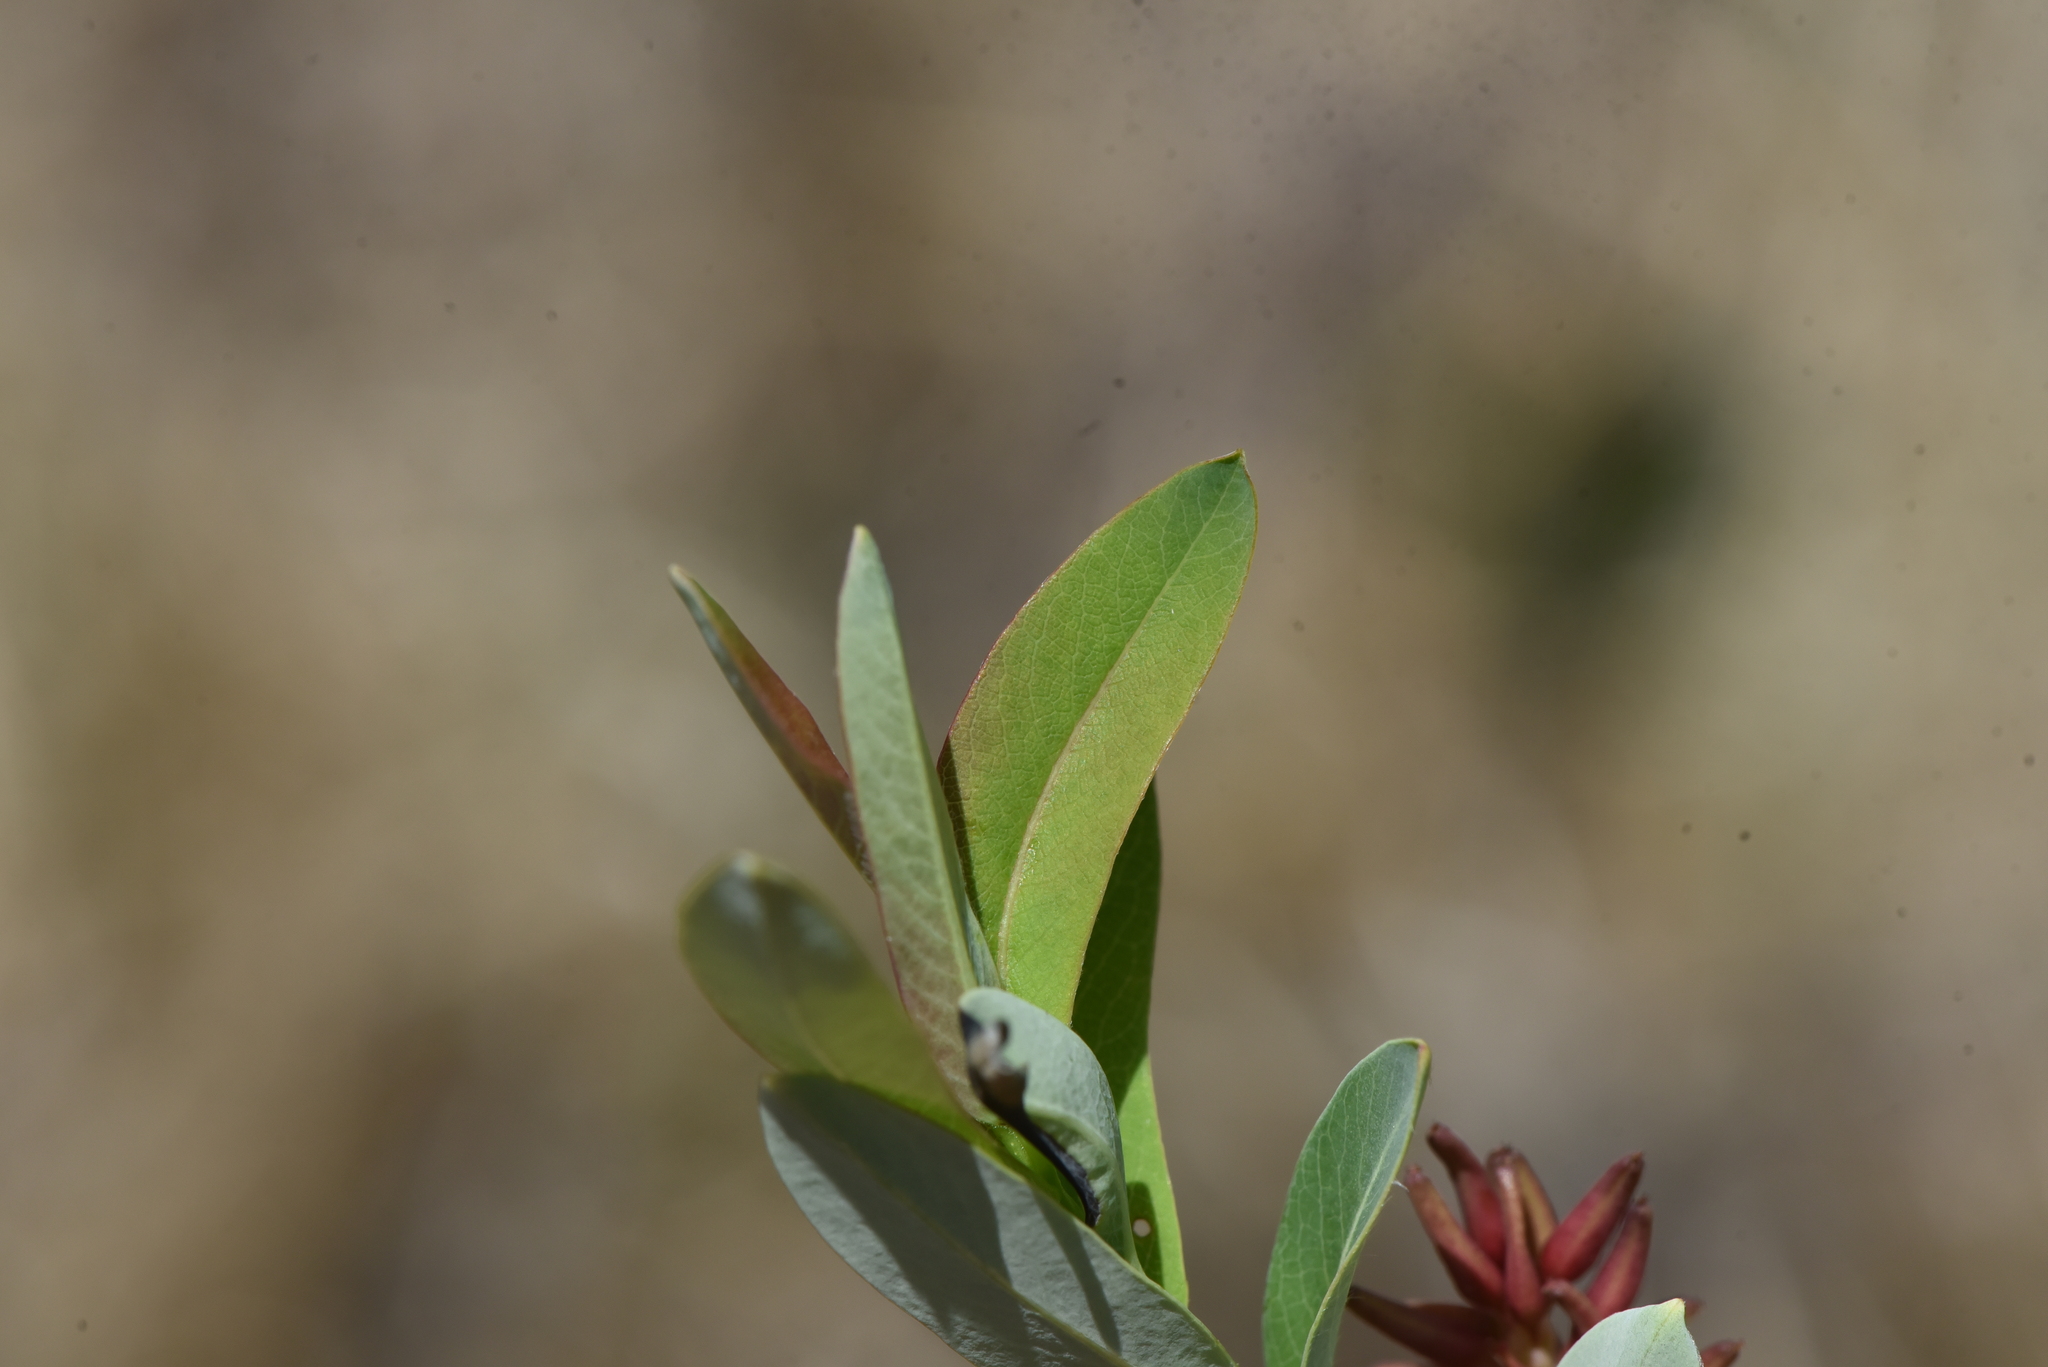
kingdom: Plantae
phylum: Tracheophyta
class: Magnoliopsida
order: Malpighiales
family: Salicaceae
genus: Salix
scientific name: Salix pedicellaris
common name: Bog willow
